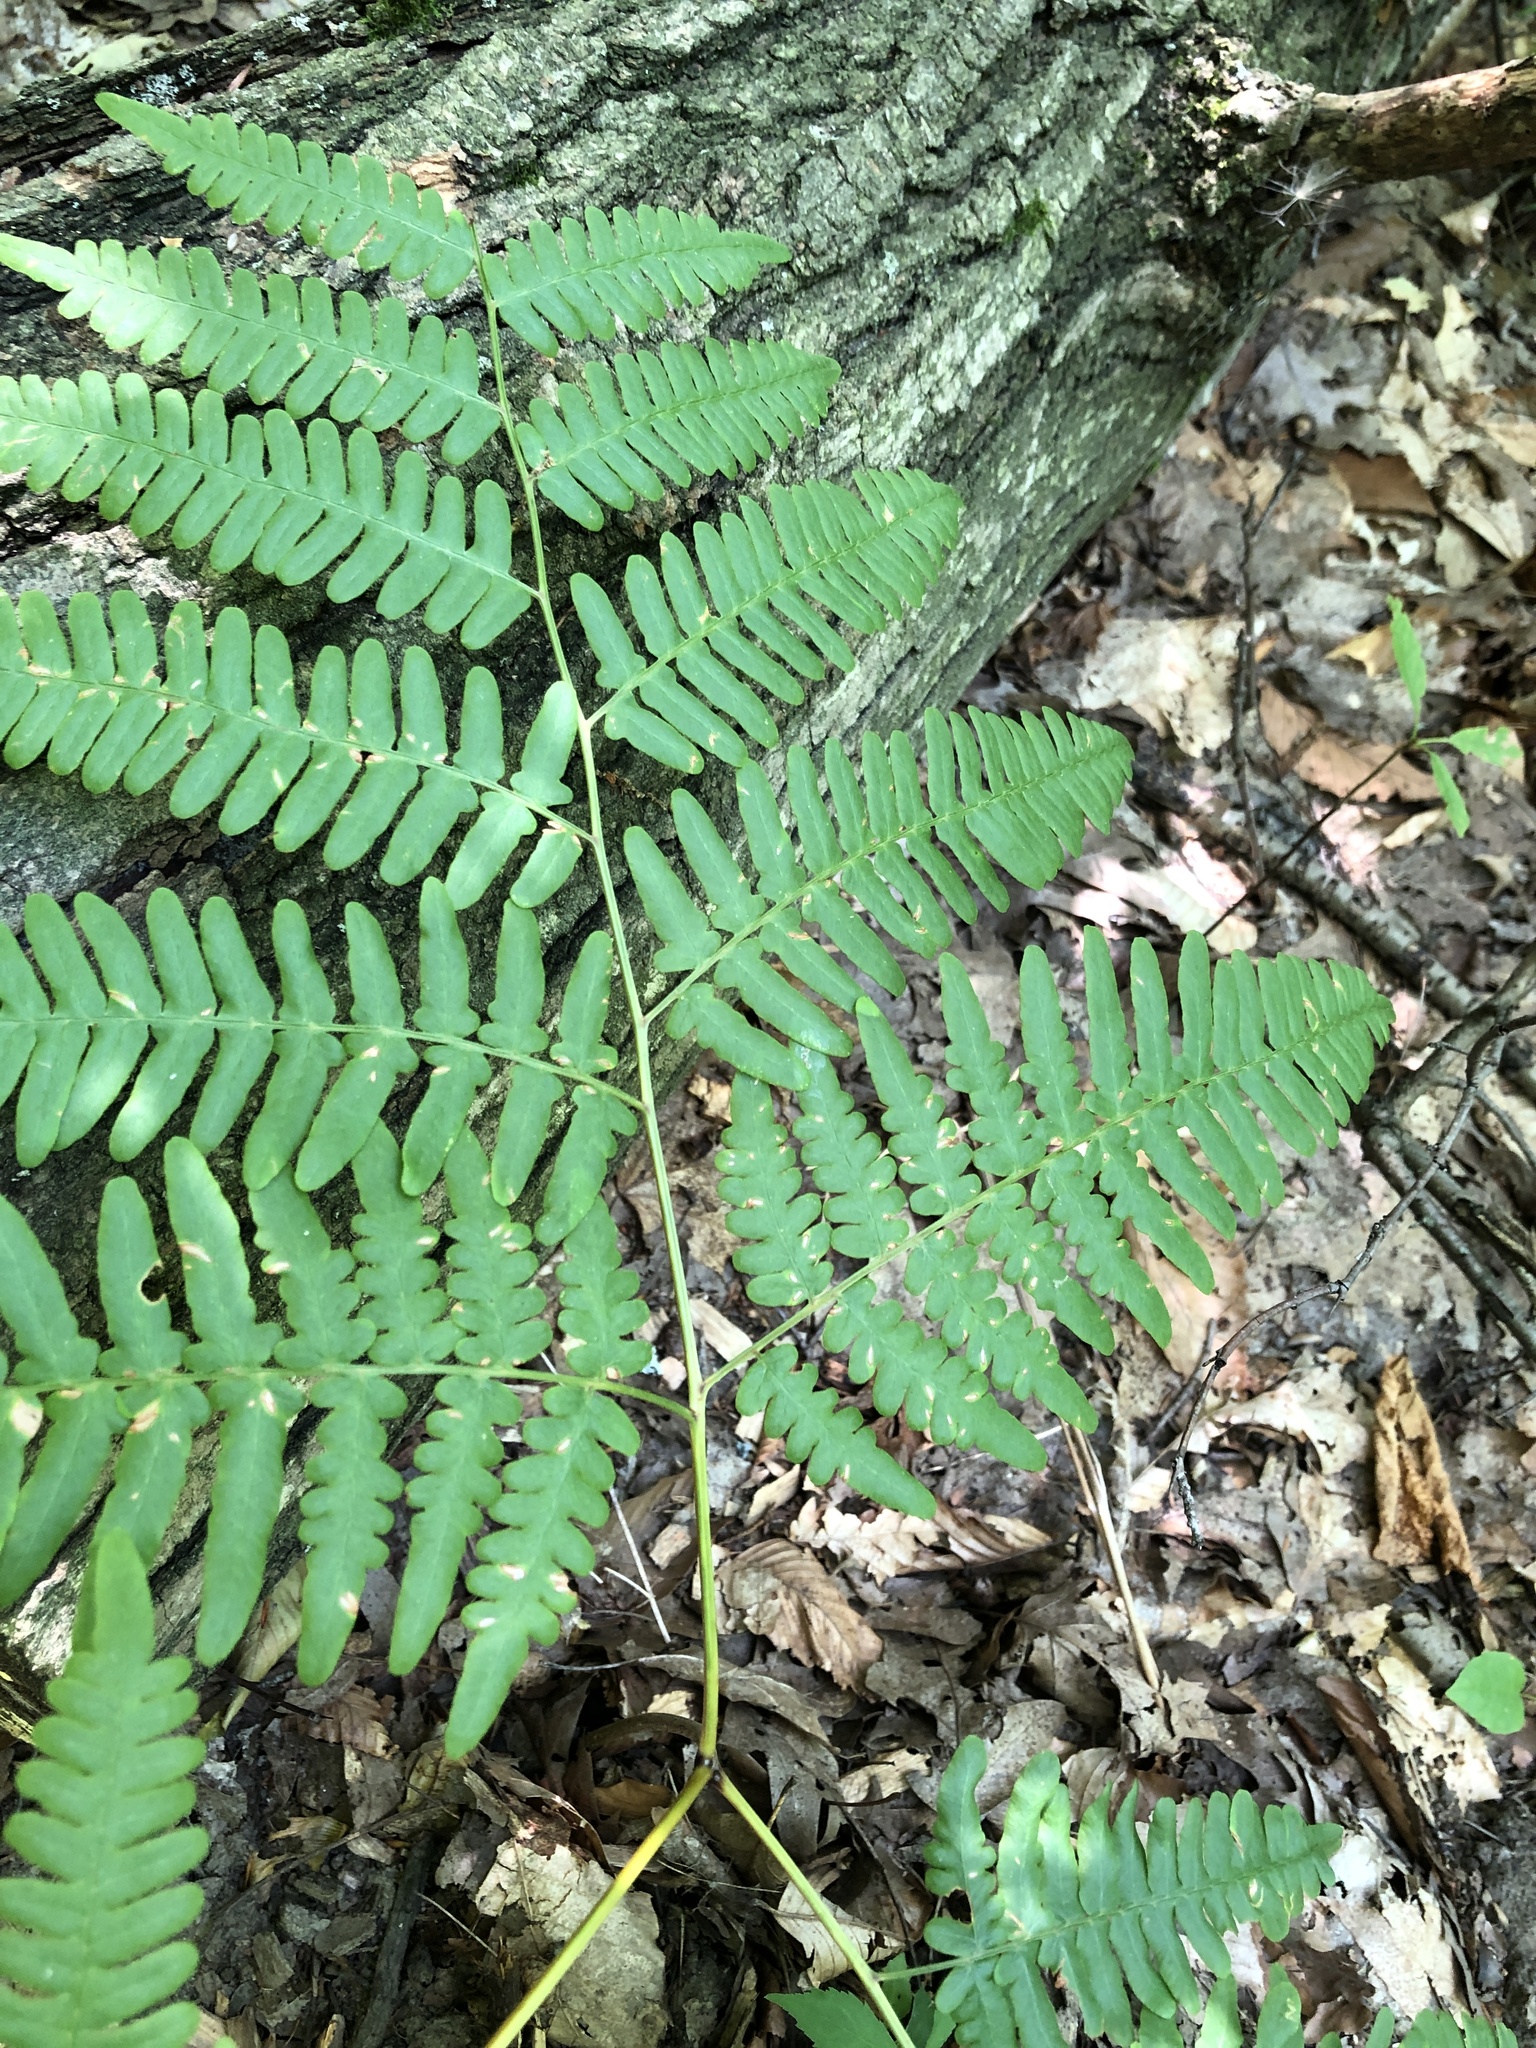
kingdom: Plantae
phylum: Tracheophyta
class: Polypodiopsida
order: Polypodiales
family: Dennstaedtiaceae
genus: Pteridium
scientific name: Pteridium aquilinum
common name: Bracken
